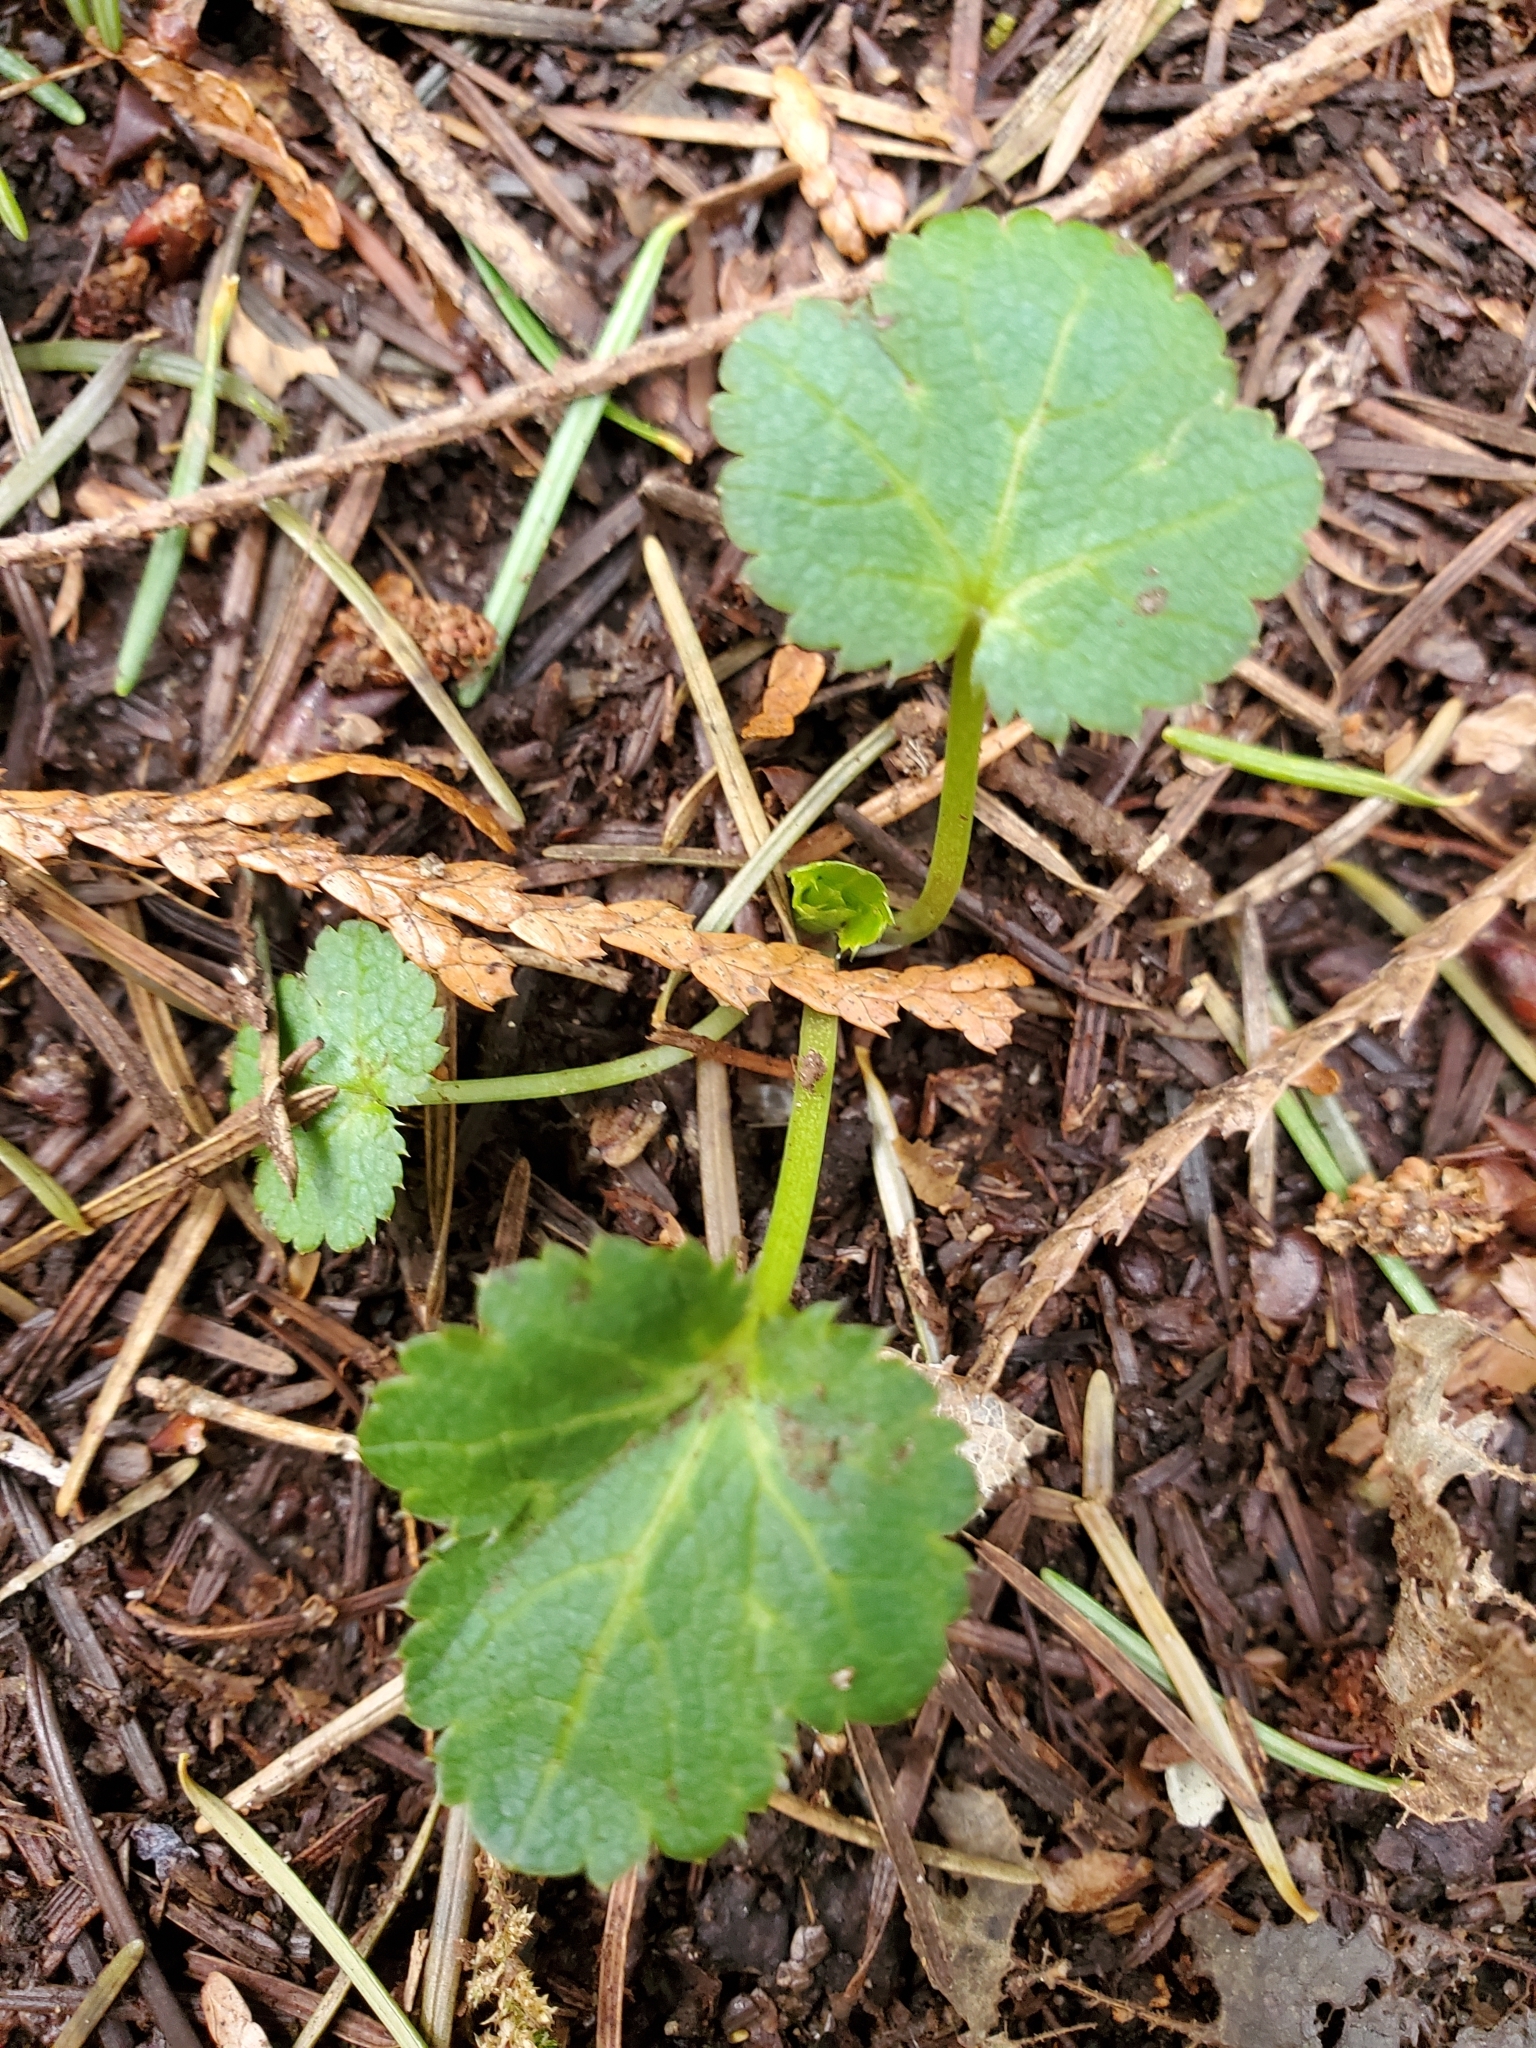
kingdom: Plantae
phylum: Tracheophyta
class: Magnoliopsida
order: Apiales
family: Apiaceae
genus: Sanicula
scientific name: Sanicula crassicaulis
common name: Western snakeroot
